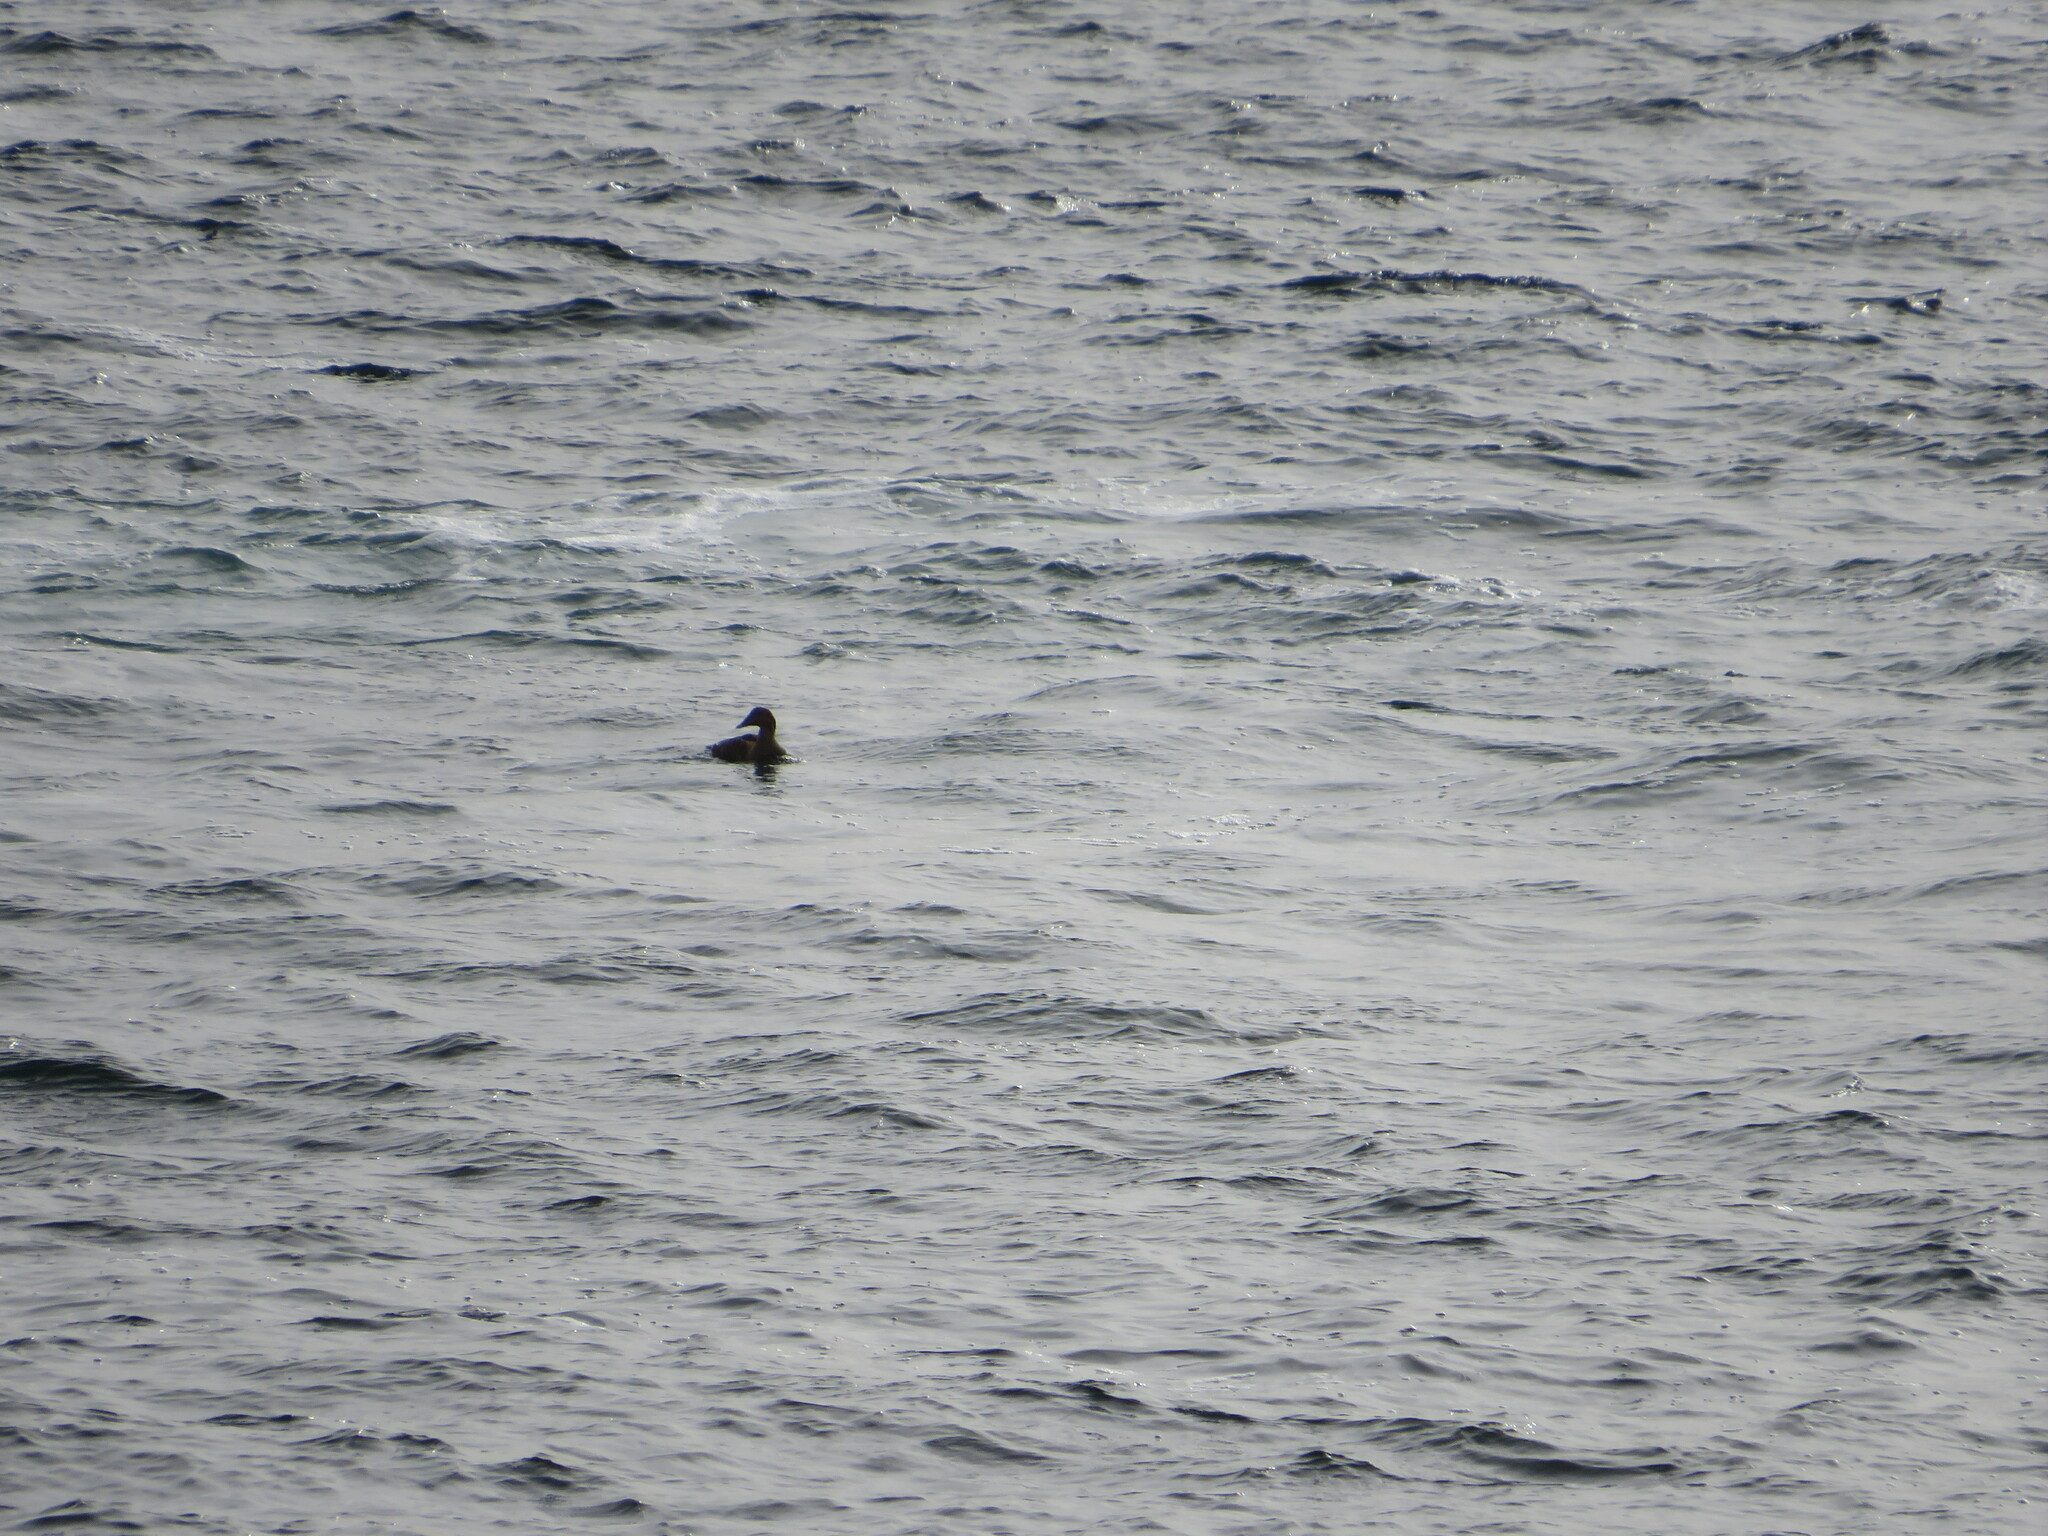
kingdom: Animalia
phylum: Chordata
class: Aves
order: Anseriformes
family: Anatidae
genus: Somateria
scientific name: Somateria mollissima
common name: Common eider
